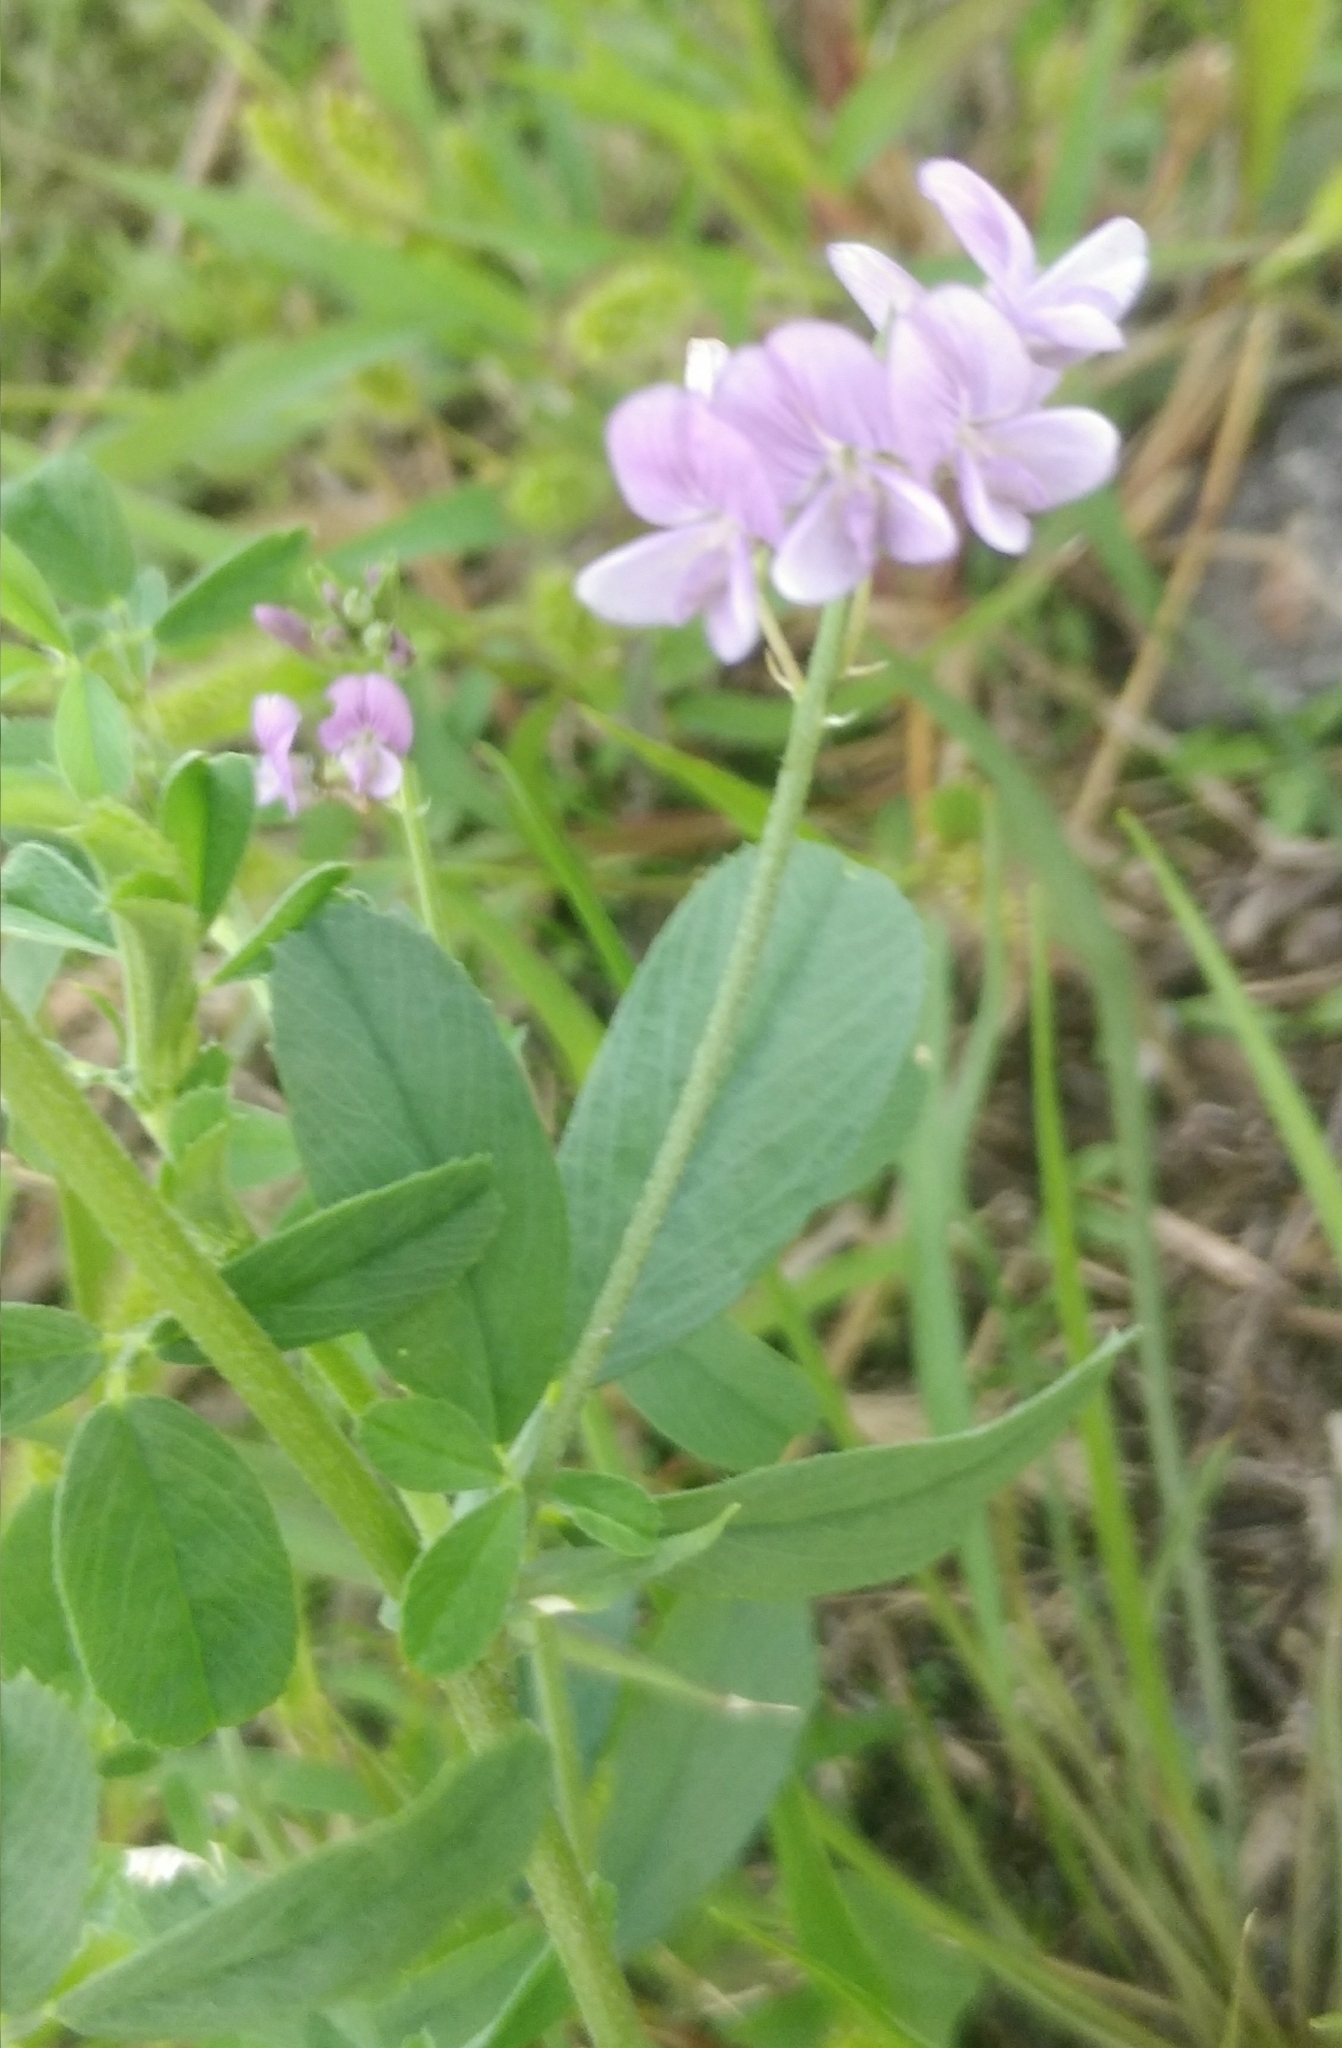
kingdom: Plantae
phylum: Tracheophyta
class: Magnoliopsida
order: Fabales
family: Fabaceae
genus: Medicago
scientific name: Medicago sativa
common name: Alfalfa
